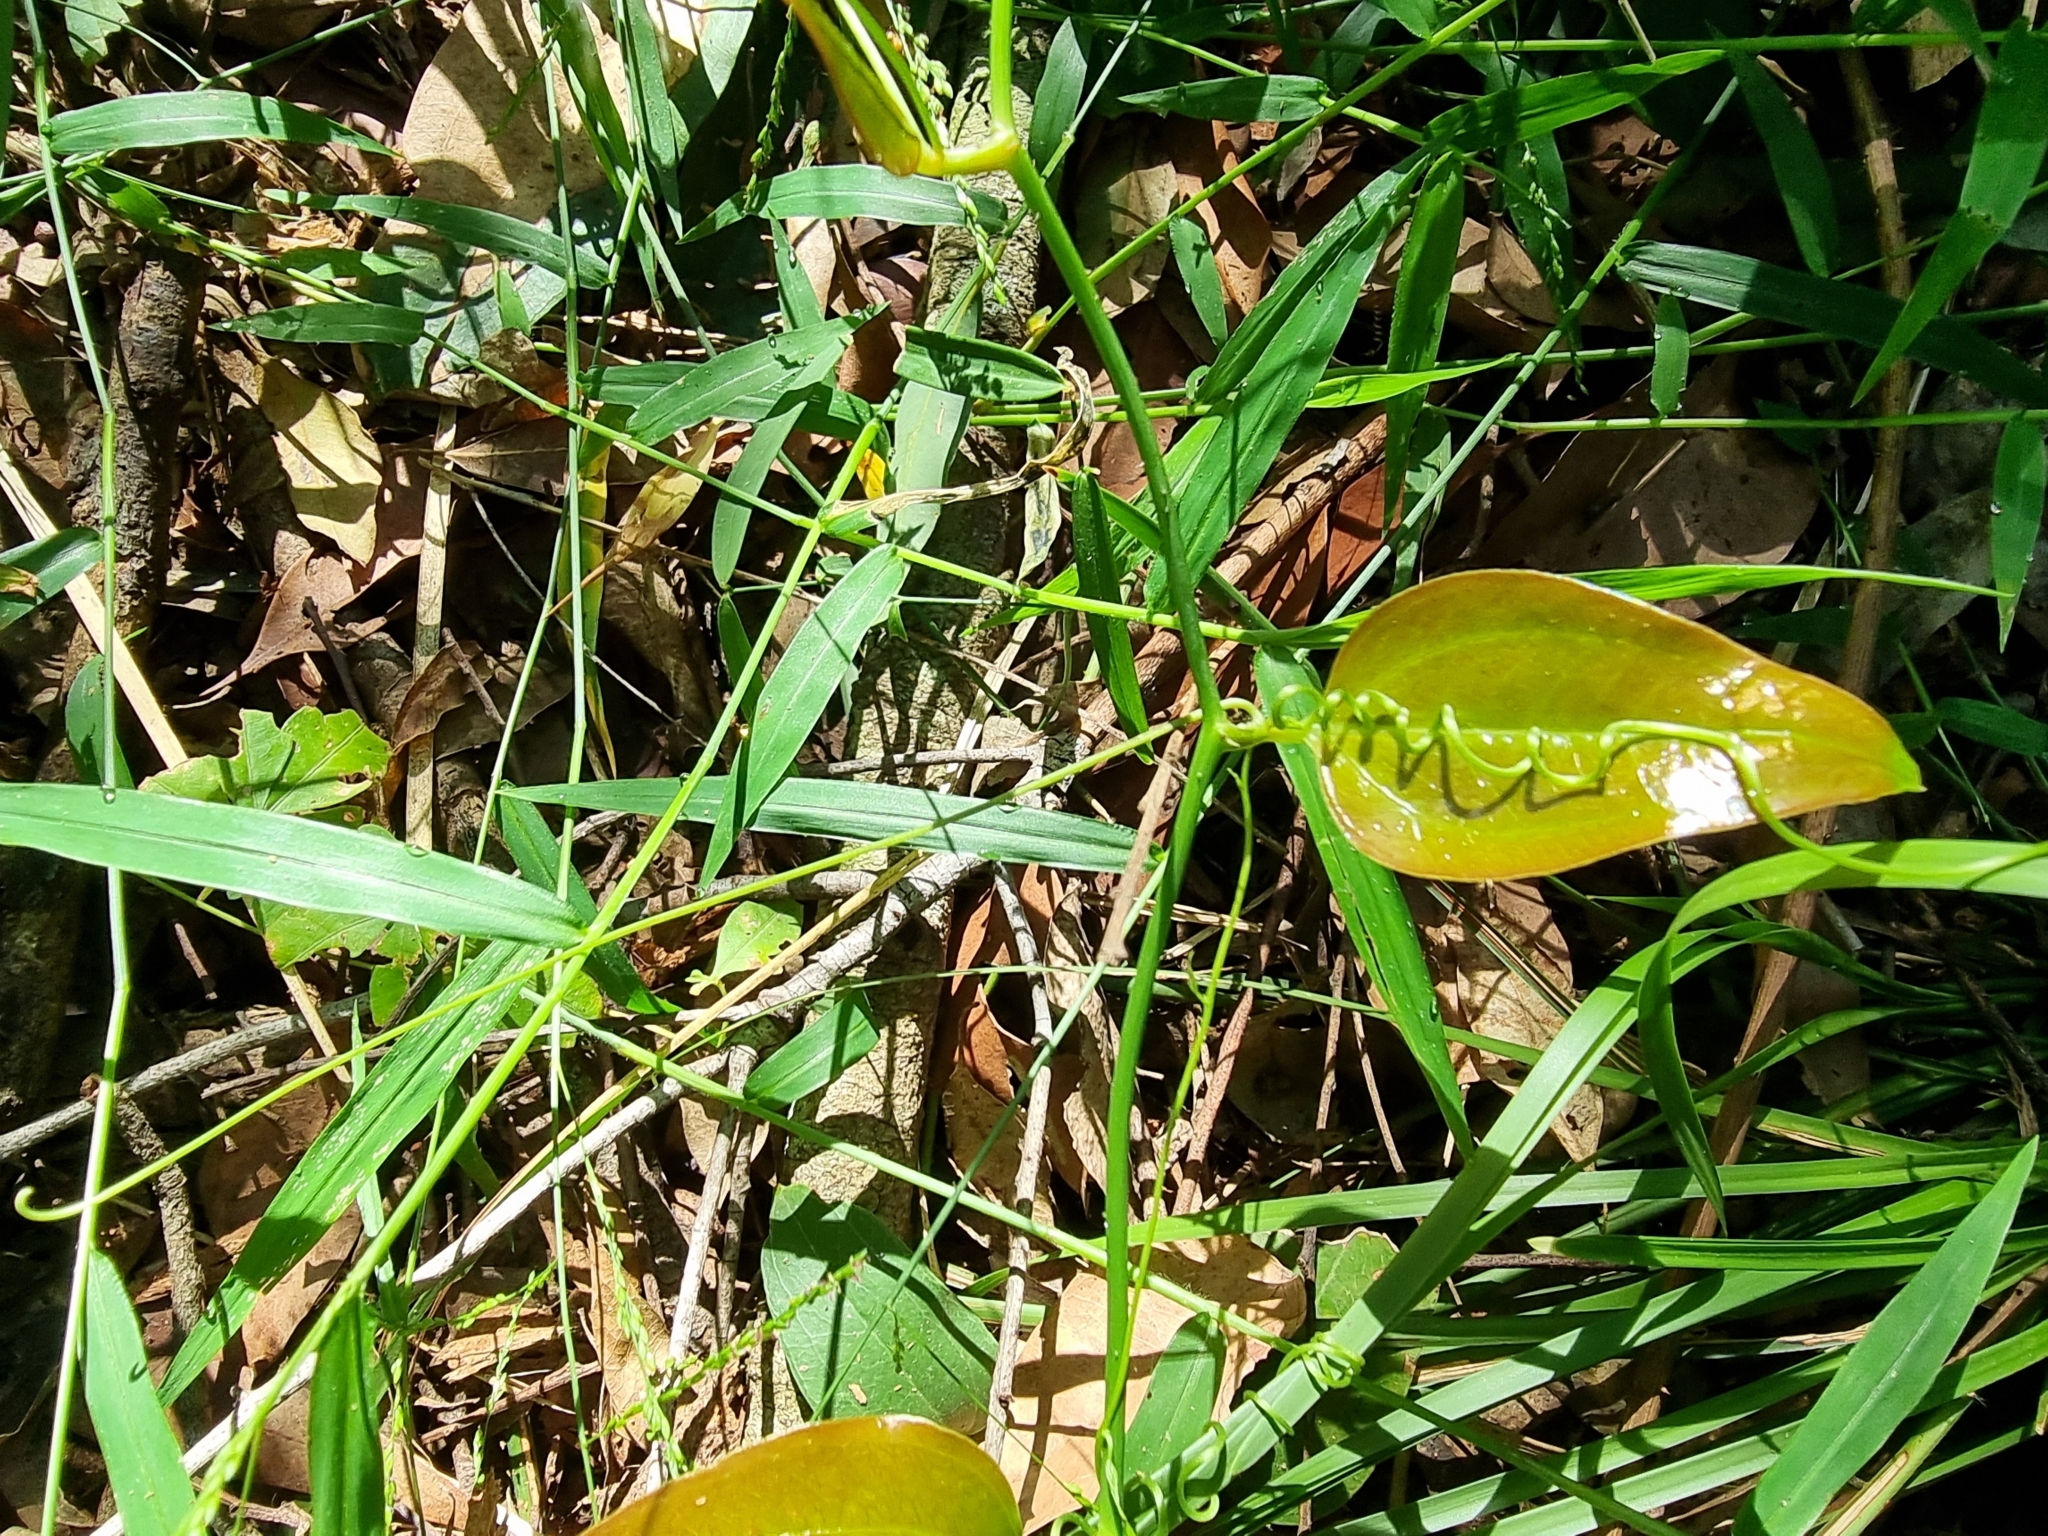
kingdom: Plantae
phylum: Tracheophyta
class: Liliopsida
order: Liliales
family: Smilacaceae
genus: Smilax
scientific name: Smilax australis
